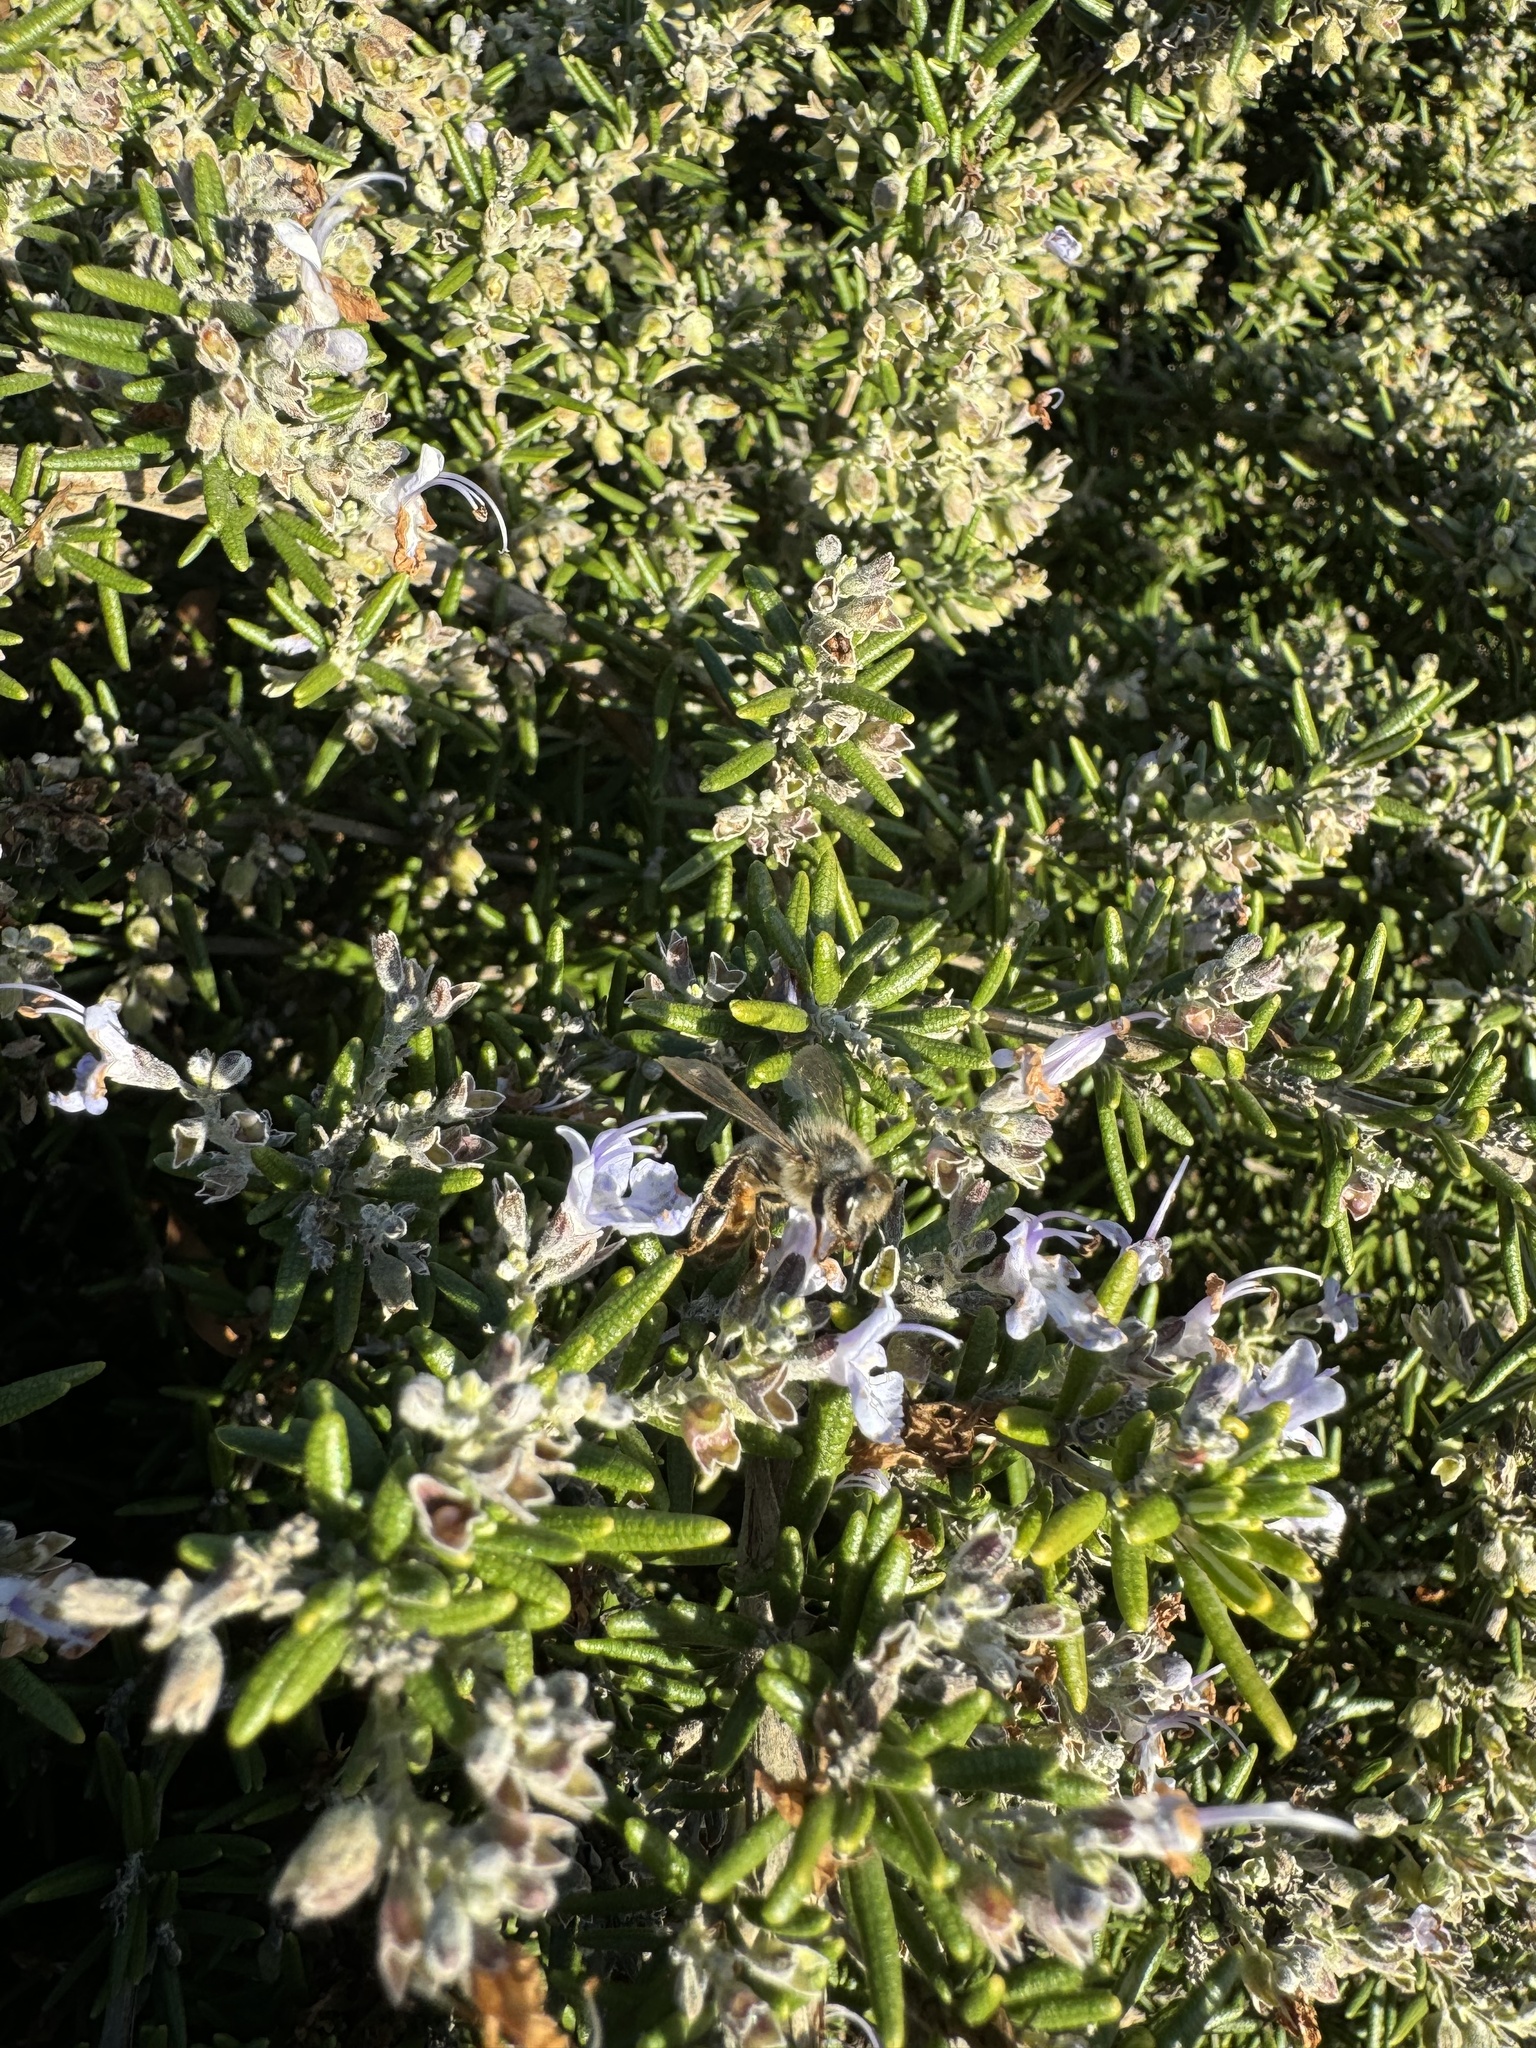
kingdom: Animalia
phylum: Arthropoda
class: Insecta
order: Hymenoptera
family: Apidae
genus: Apis
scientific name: Apis mellifera
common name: Honey bee
